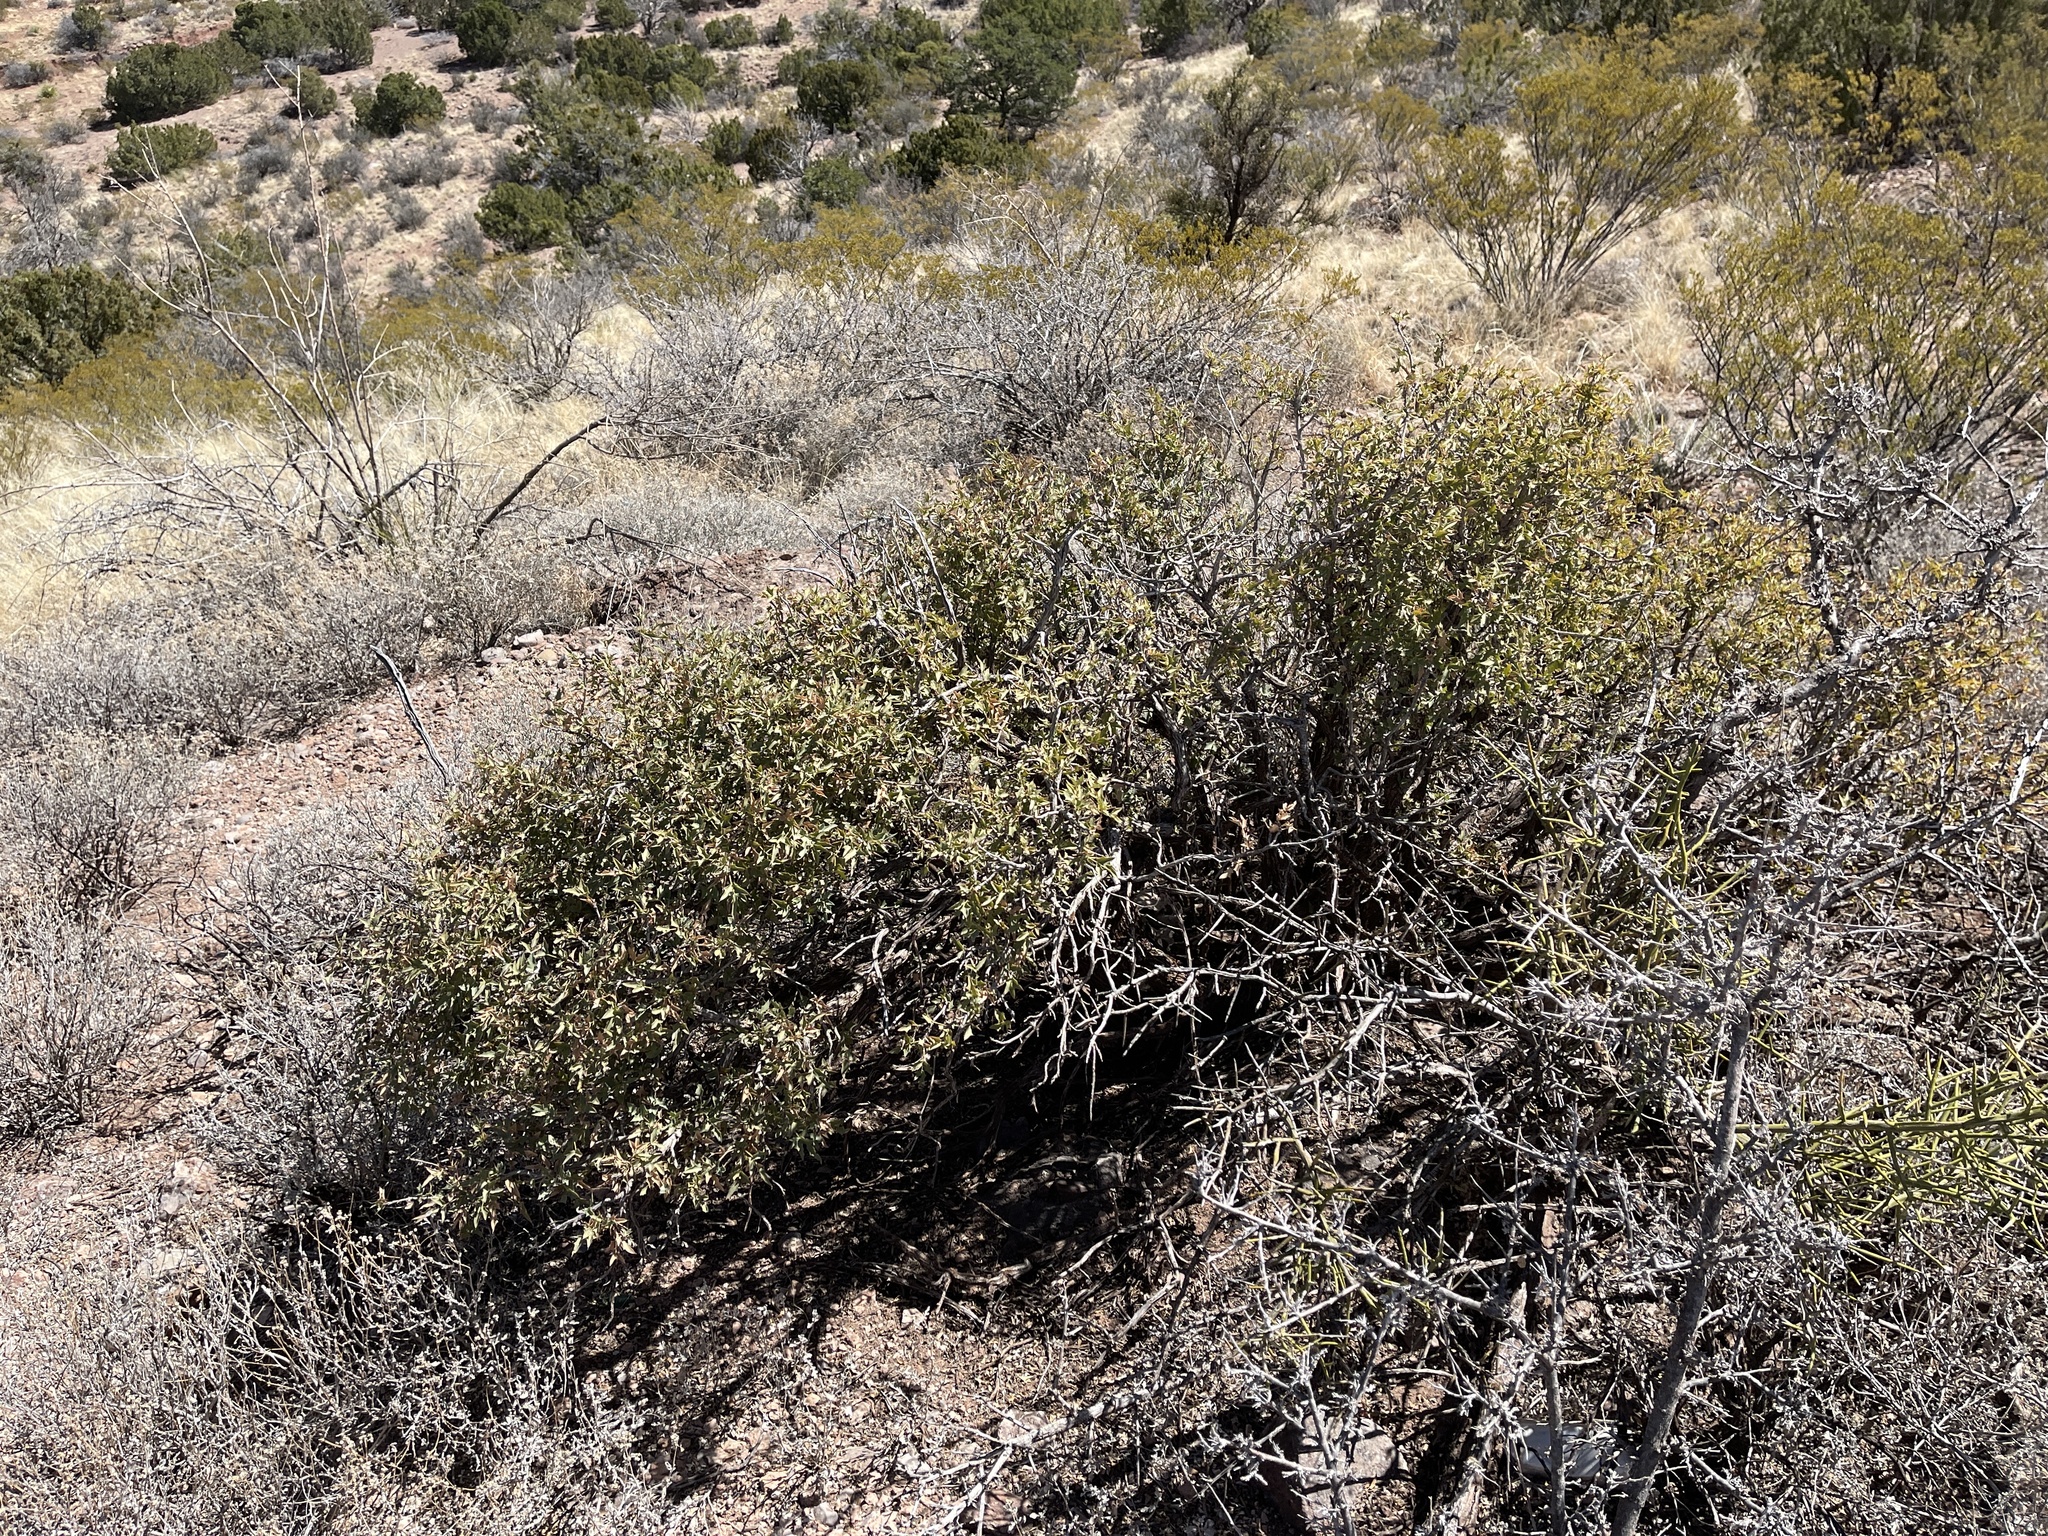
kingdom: Plantae
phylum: Tracheophyta
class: Magnoliopsida
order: Ranunculales
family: Berberidaceae
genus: Alloberberis
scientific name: Alloberberis haematocarpa
